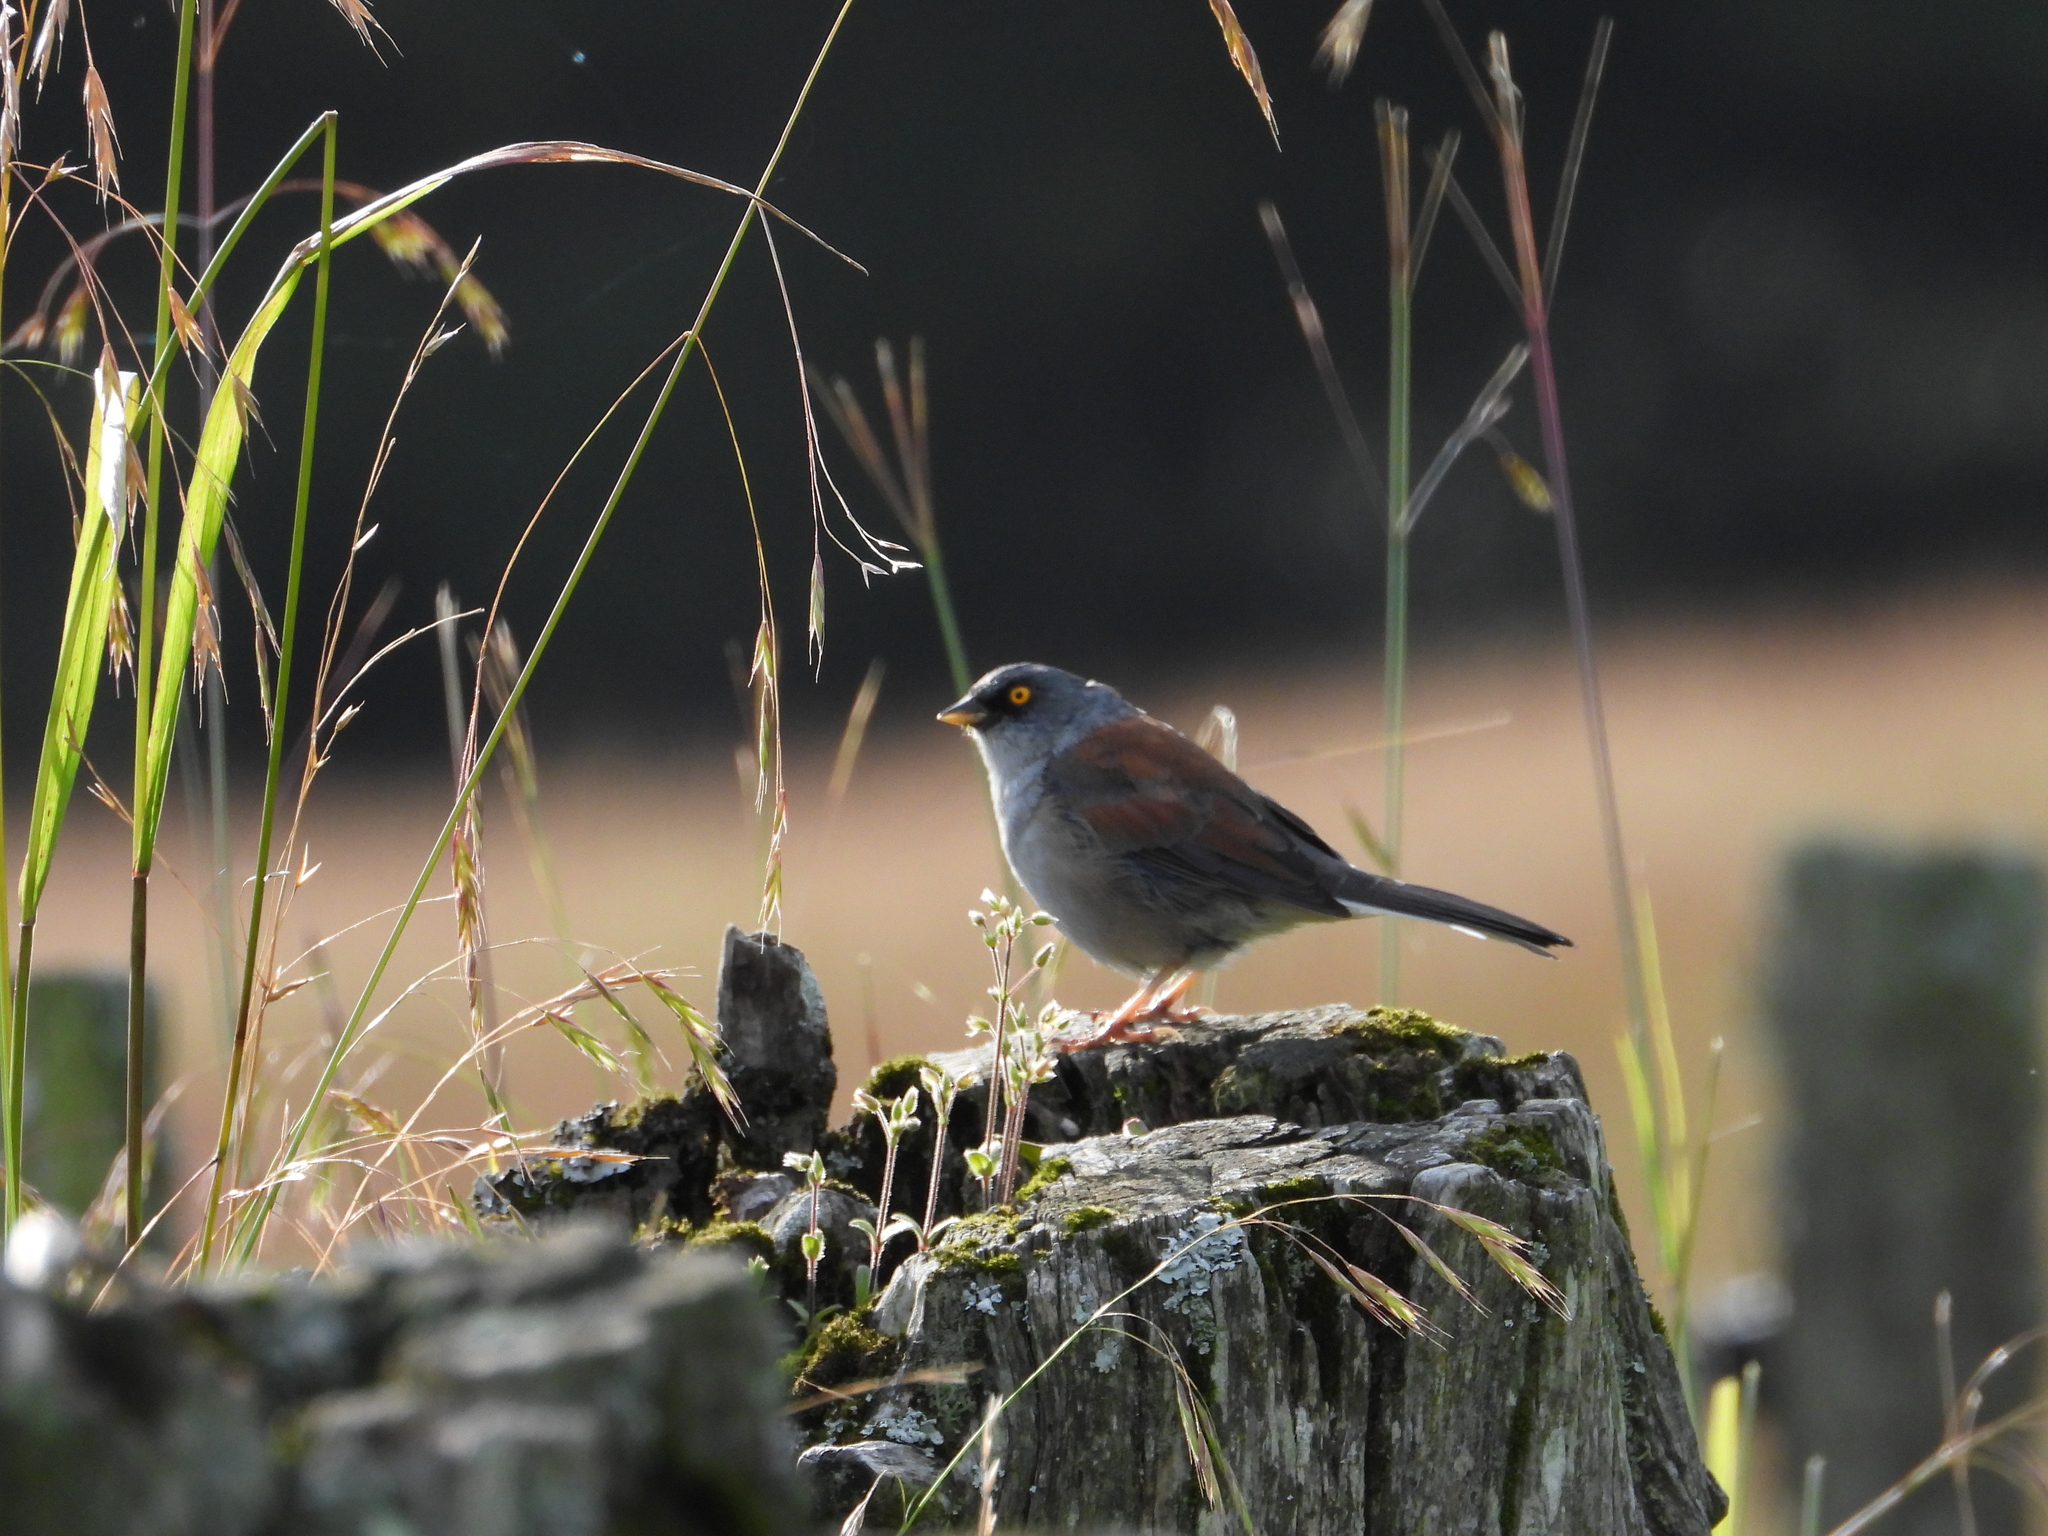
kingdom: Animalia
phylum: Chordata
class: Aves
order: Passeriformes
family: Passerellidae
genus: Junco
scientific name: Junco phaeonotus
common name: Yellow-eyed junco
